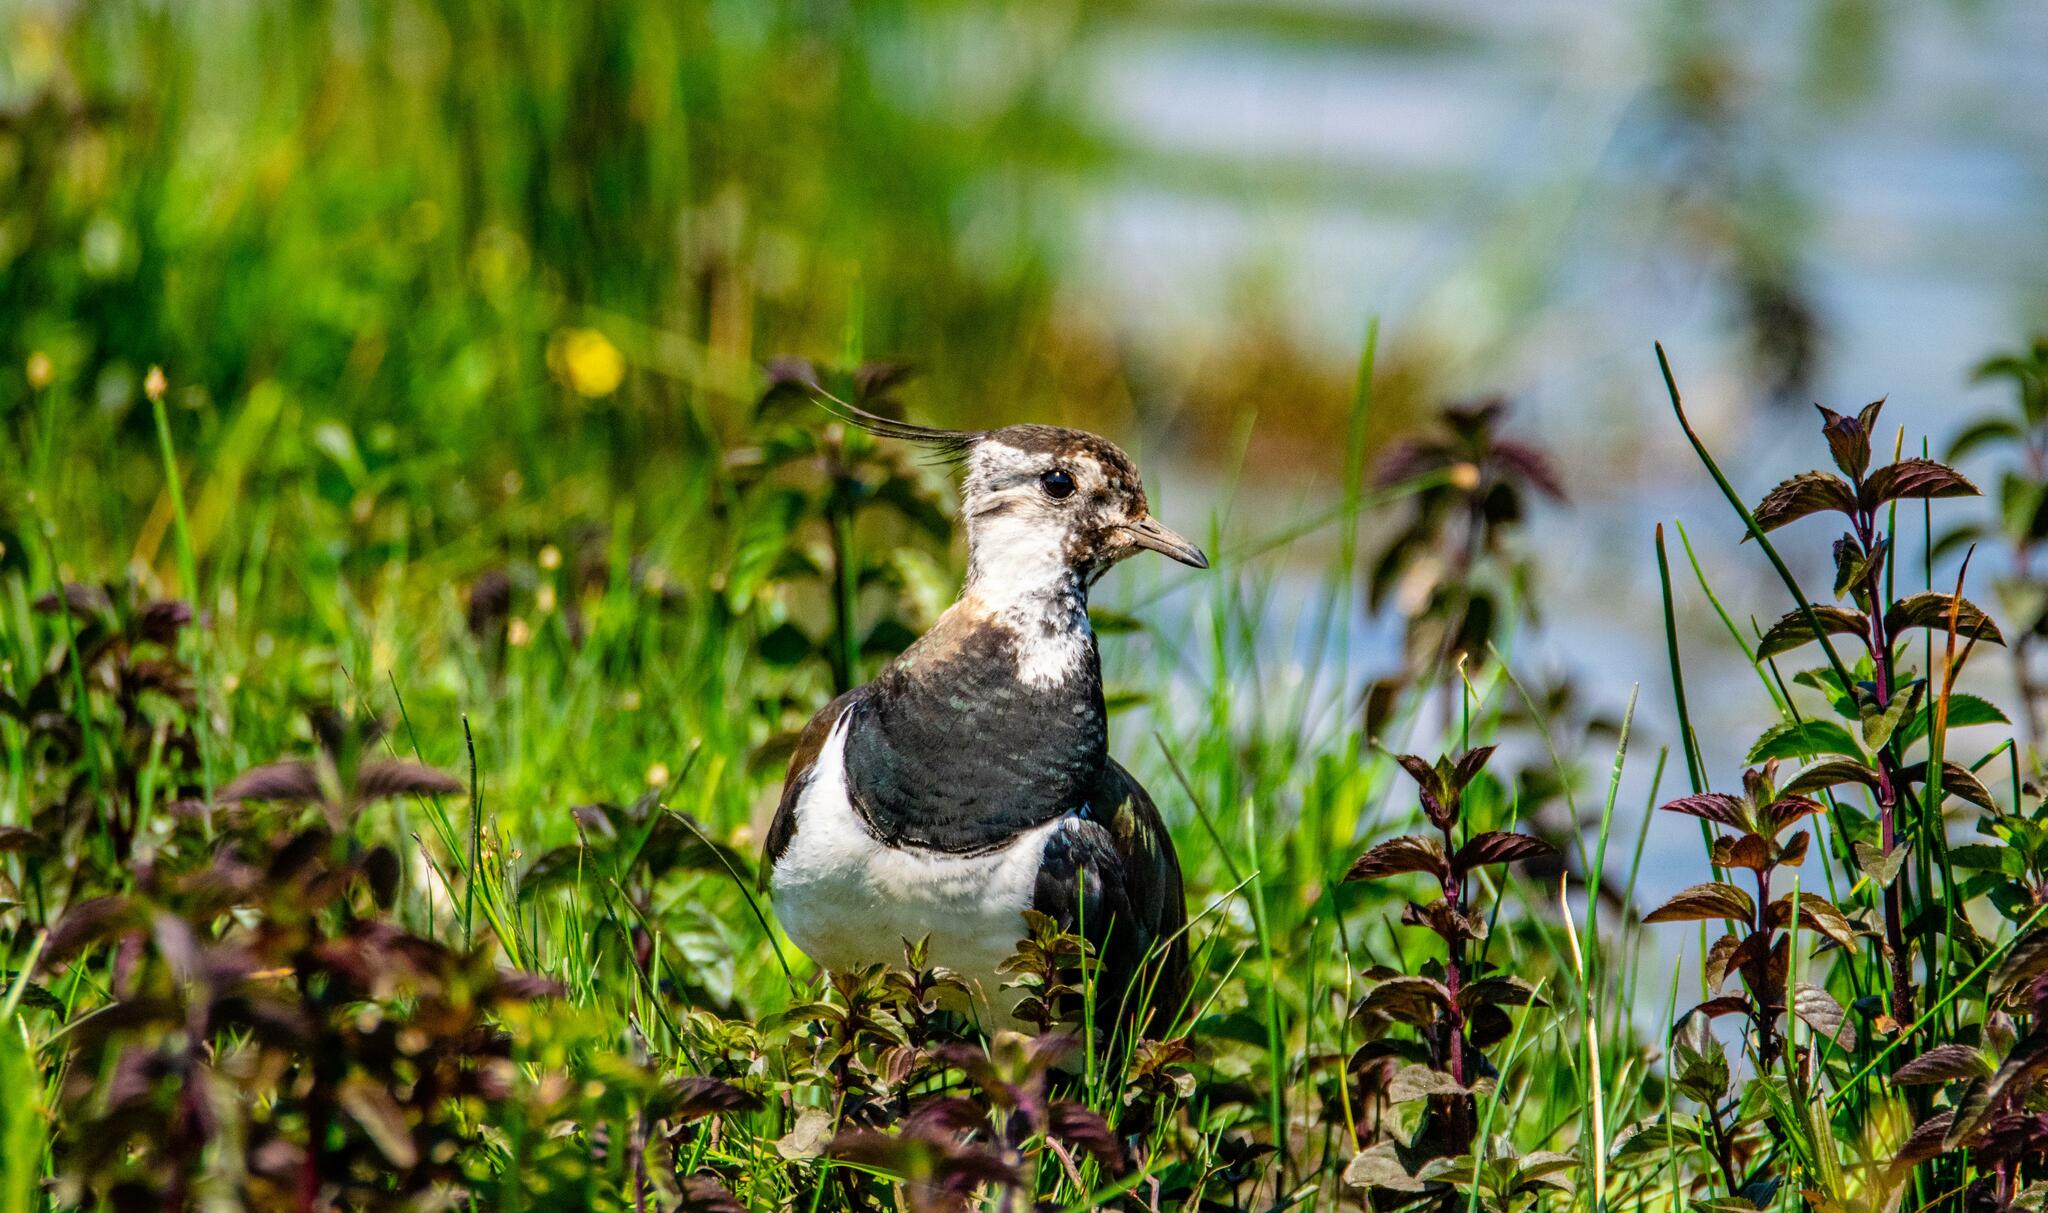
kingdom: Animalia
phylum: Chordata
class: Aves
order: Charadriiformes
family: Charadriidae
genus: Vanellus
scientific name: Vanellus vanellus
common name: Northern lapwing
